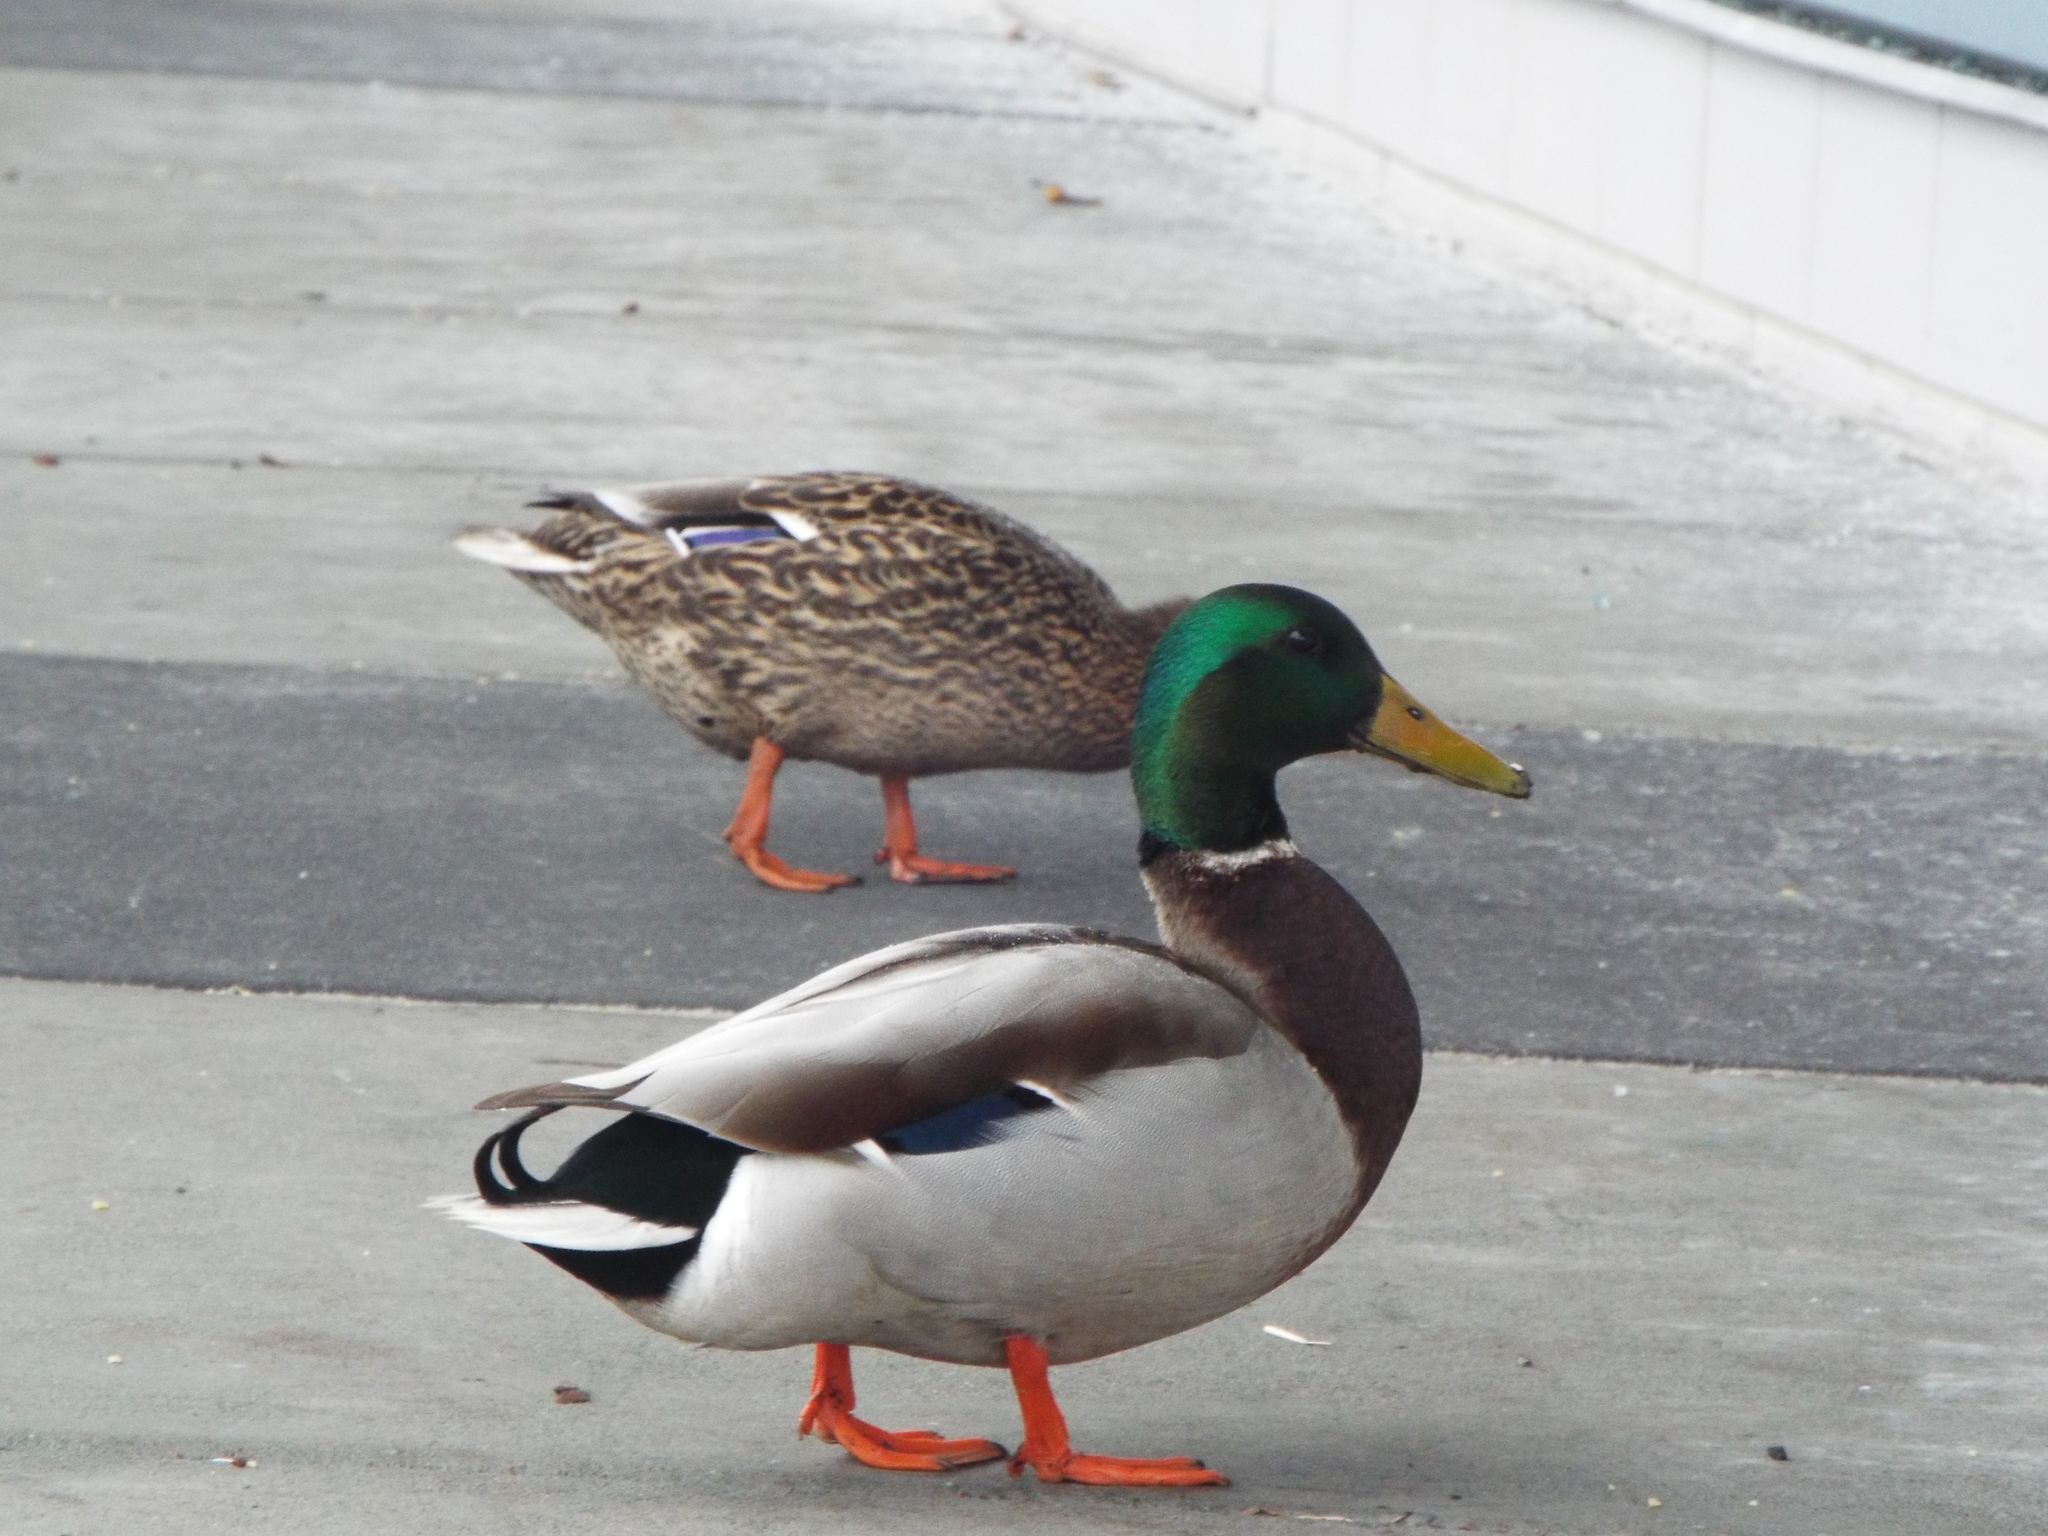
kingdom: Animalia
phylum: Chordata
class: Aves
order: Anseriformes
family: Anatidae
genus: Anas
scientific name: Anas platyrhynchos
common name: Mallard
